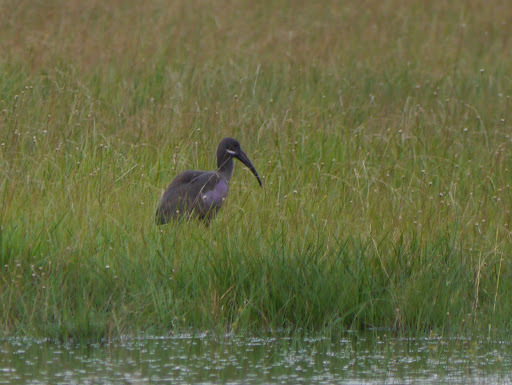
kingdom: Animalia
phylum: Chordata
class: Aves
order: Pelecaniformes
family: Threskiornithidae
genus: Bostrychia
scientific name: Bostrychia hagedash
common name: Hadada ibis
